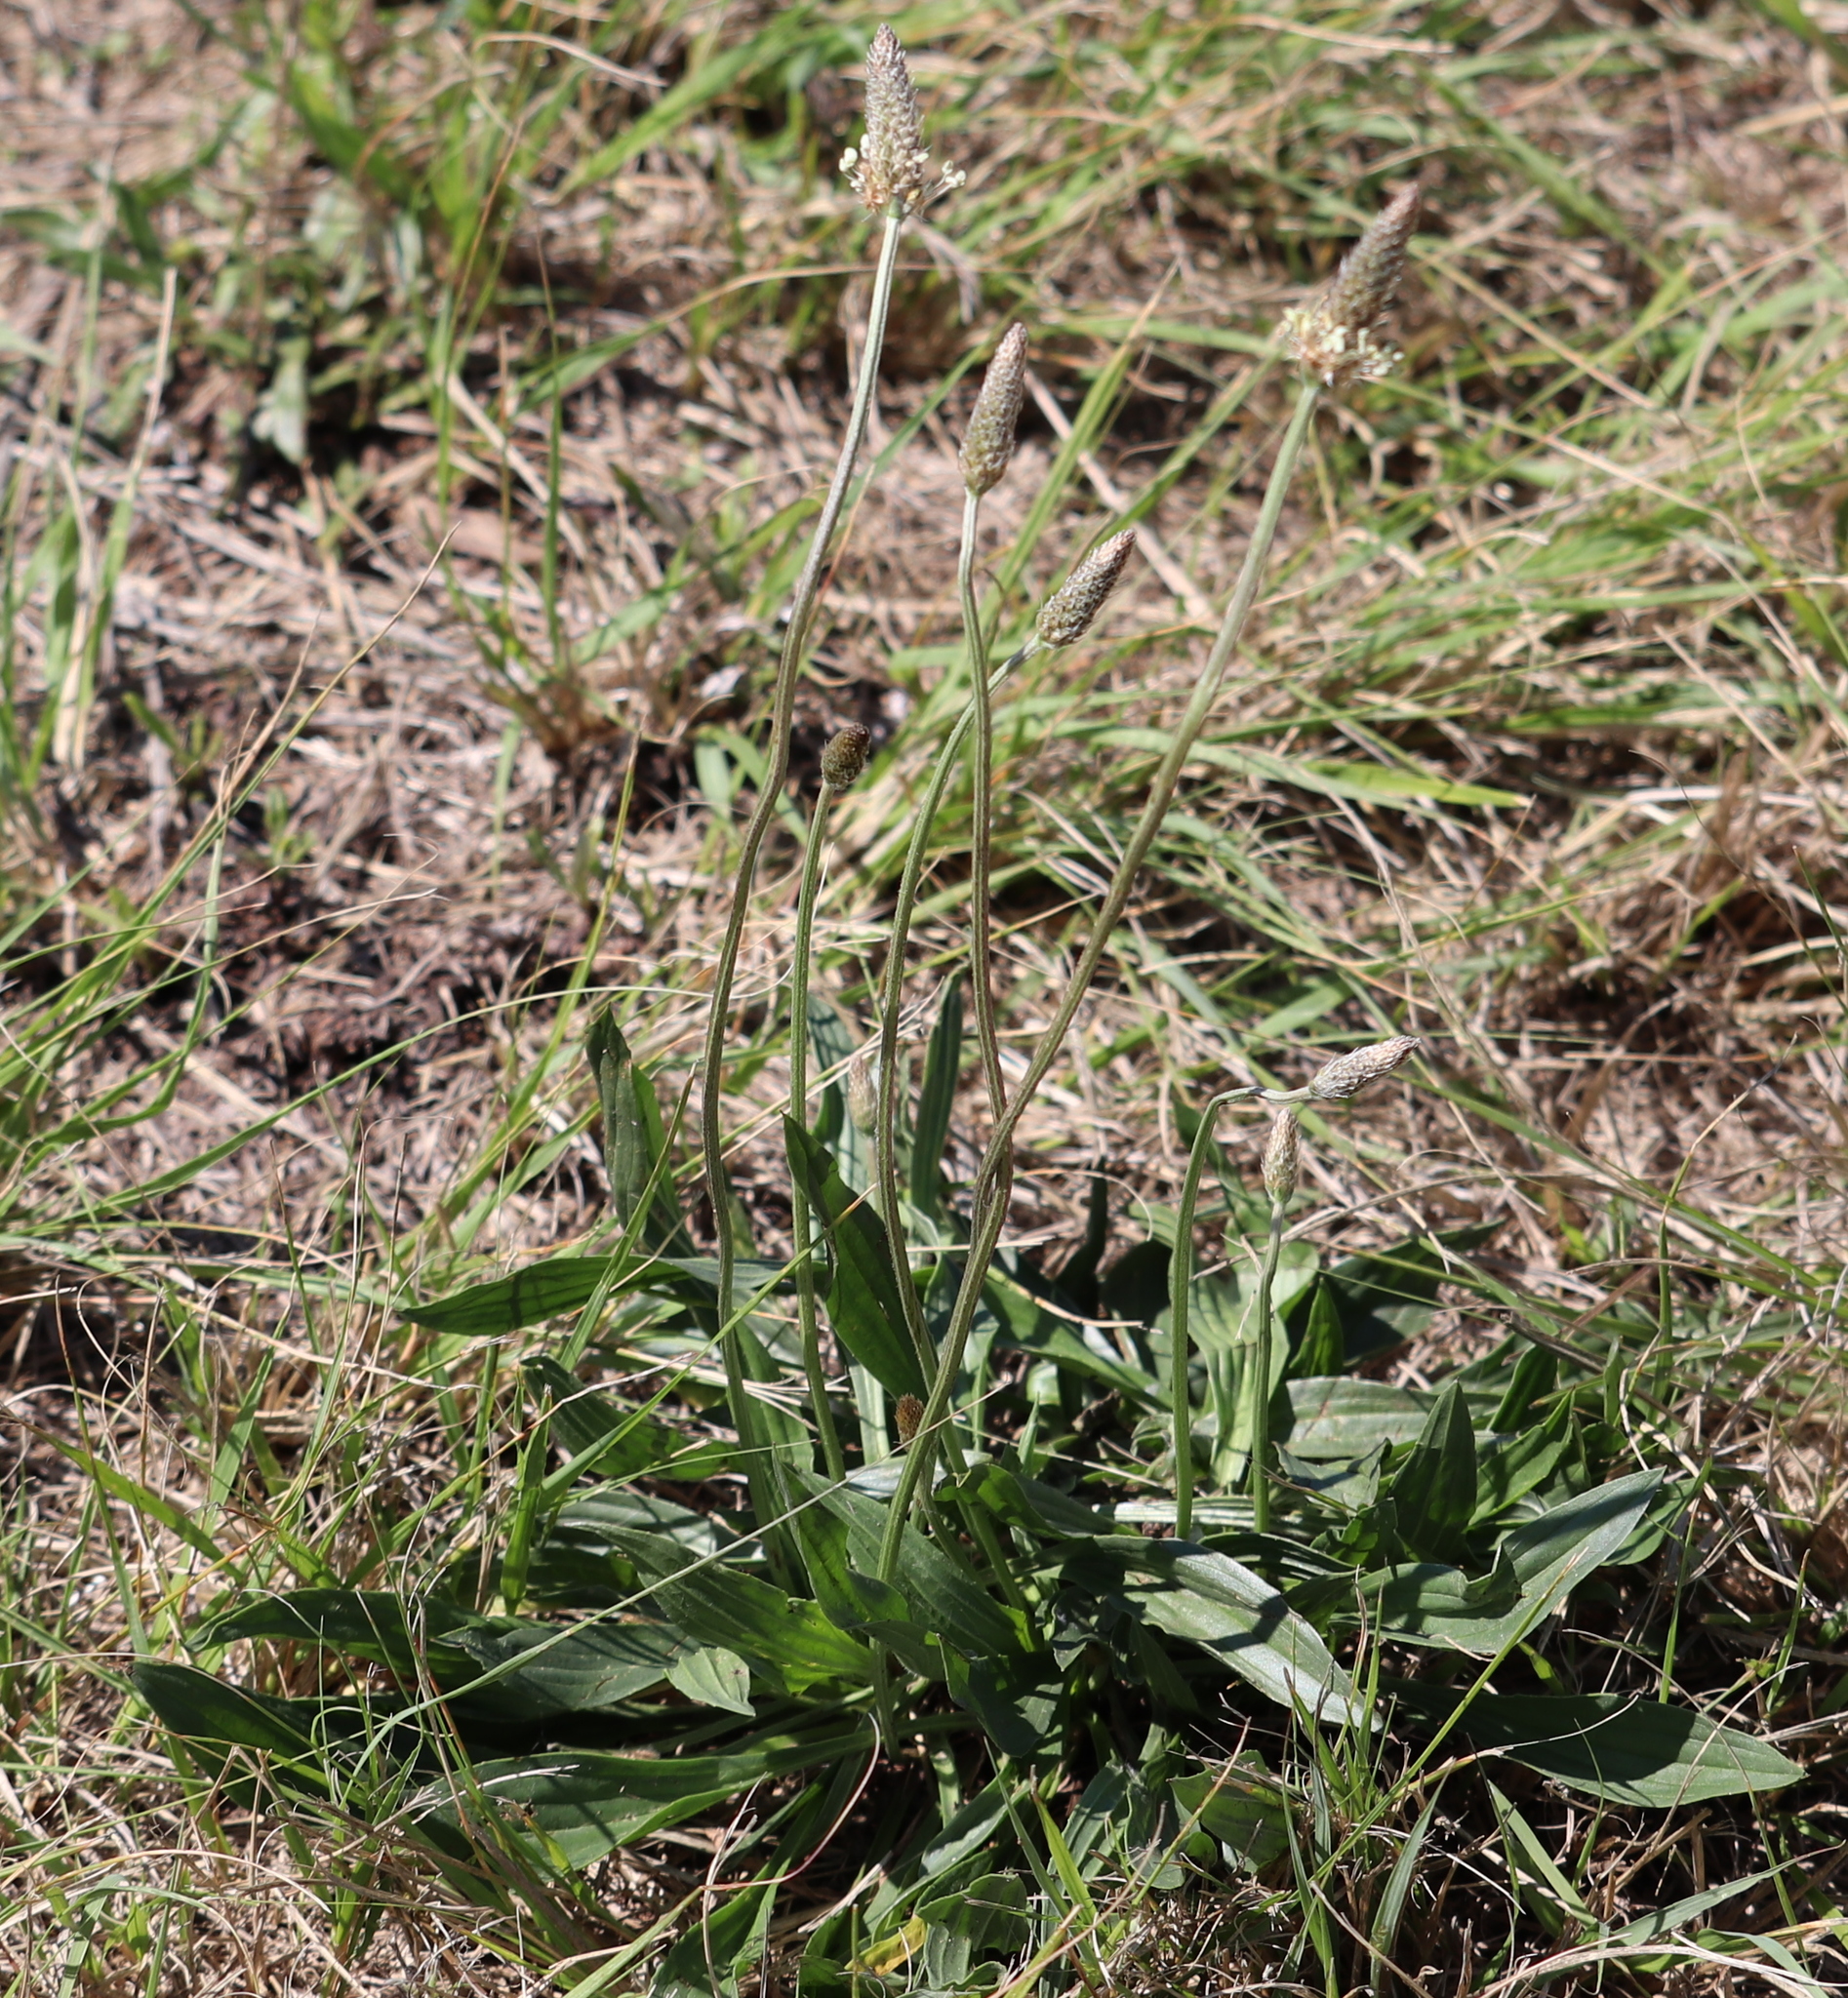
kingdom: Plantae
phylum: Tracheophyta
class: Magnoliopsida
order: Lamiales
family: Plantaginaceae
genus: Plantago
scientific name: Plantago lanceolata
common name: Ribwort plantain
